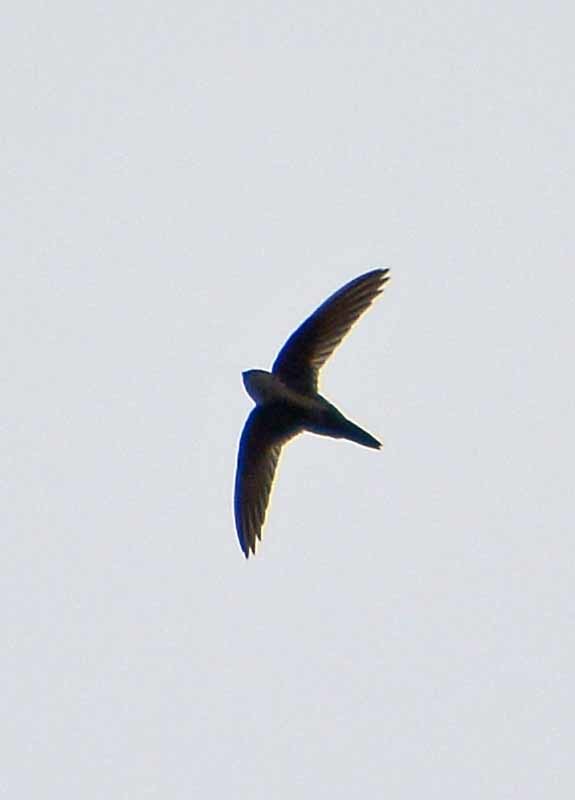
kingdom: Animalia
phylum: Chordata
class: Aves
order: Apodiformes
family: Apodidae
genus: Aeronautes
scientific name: Aeronautes saxatalis
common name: White-throated swift
